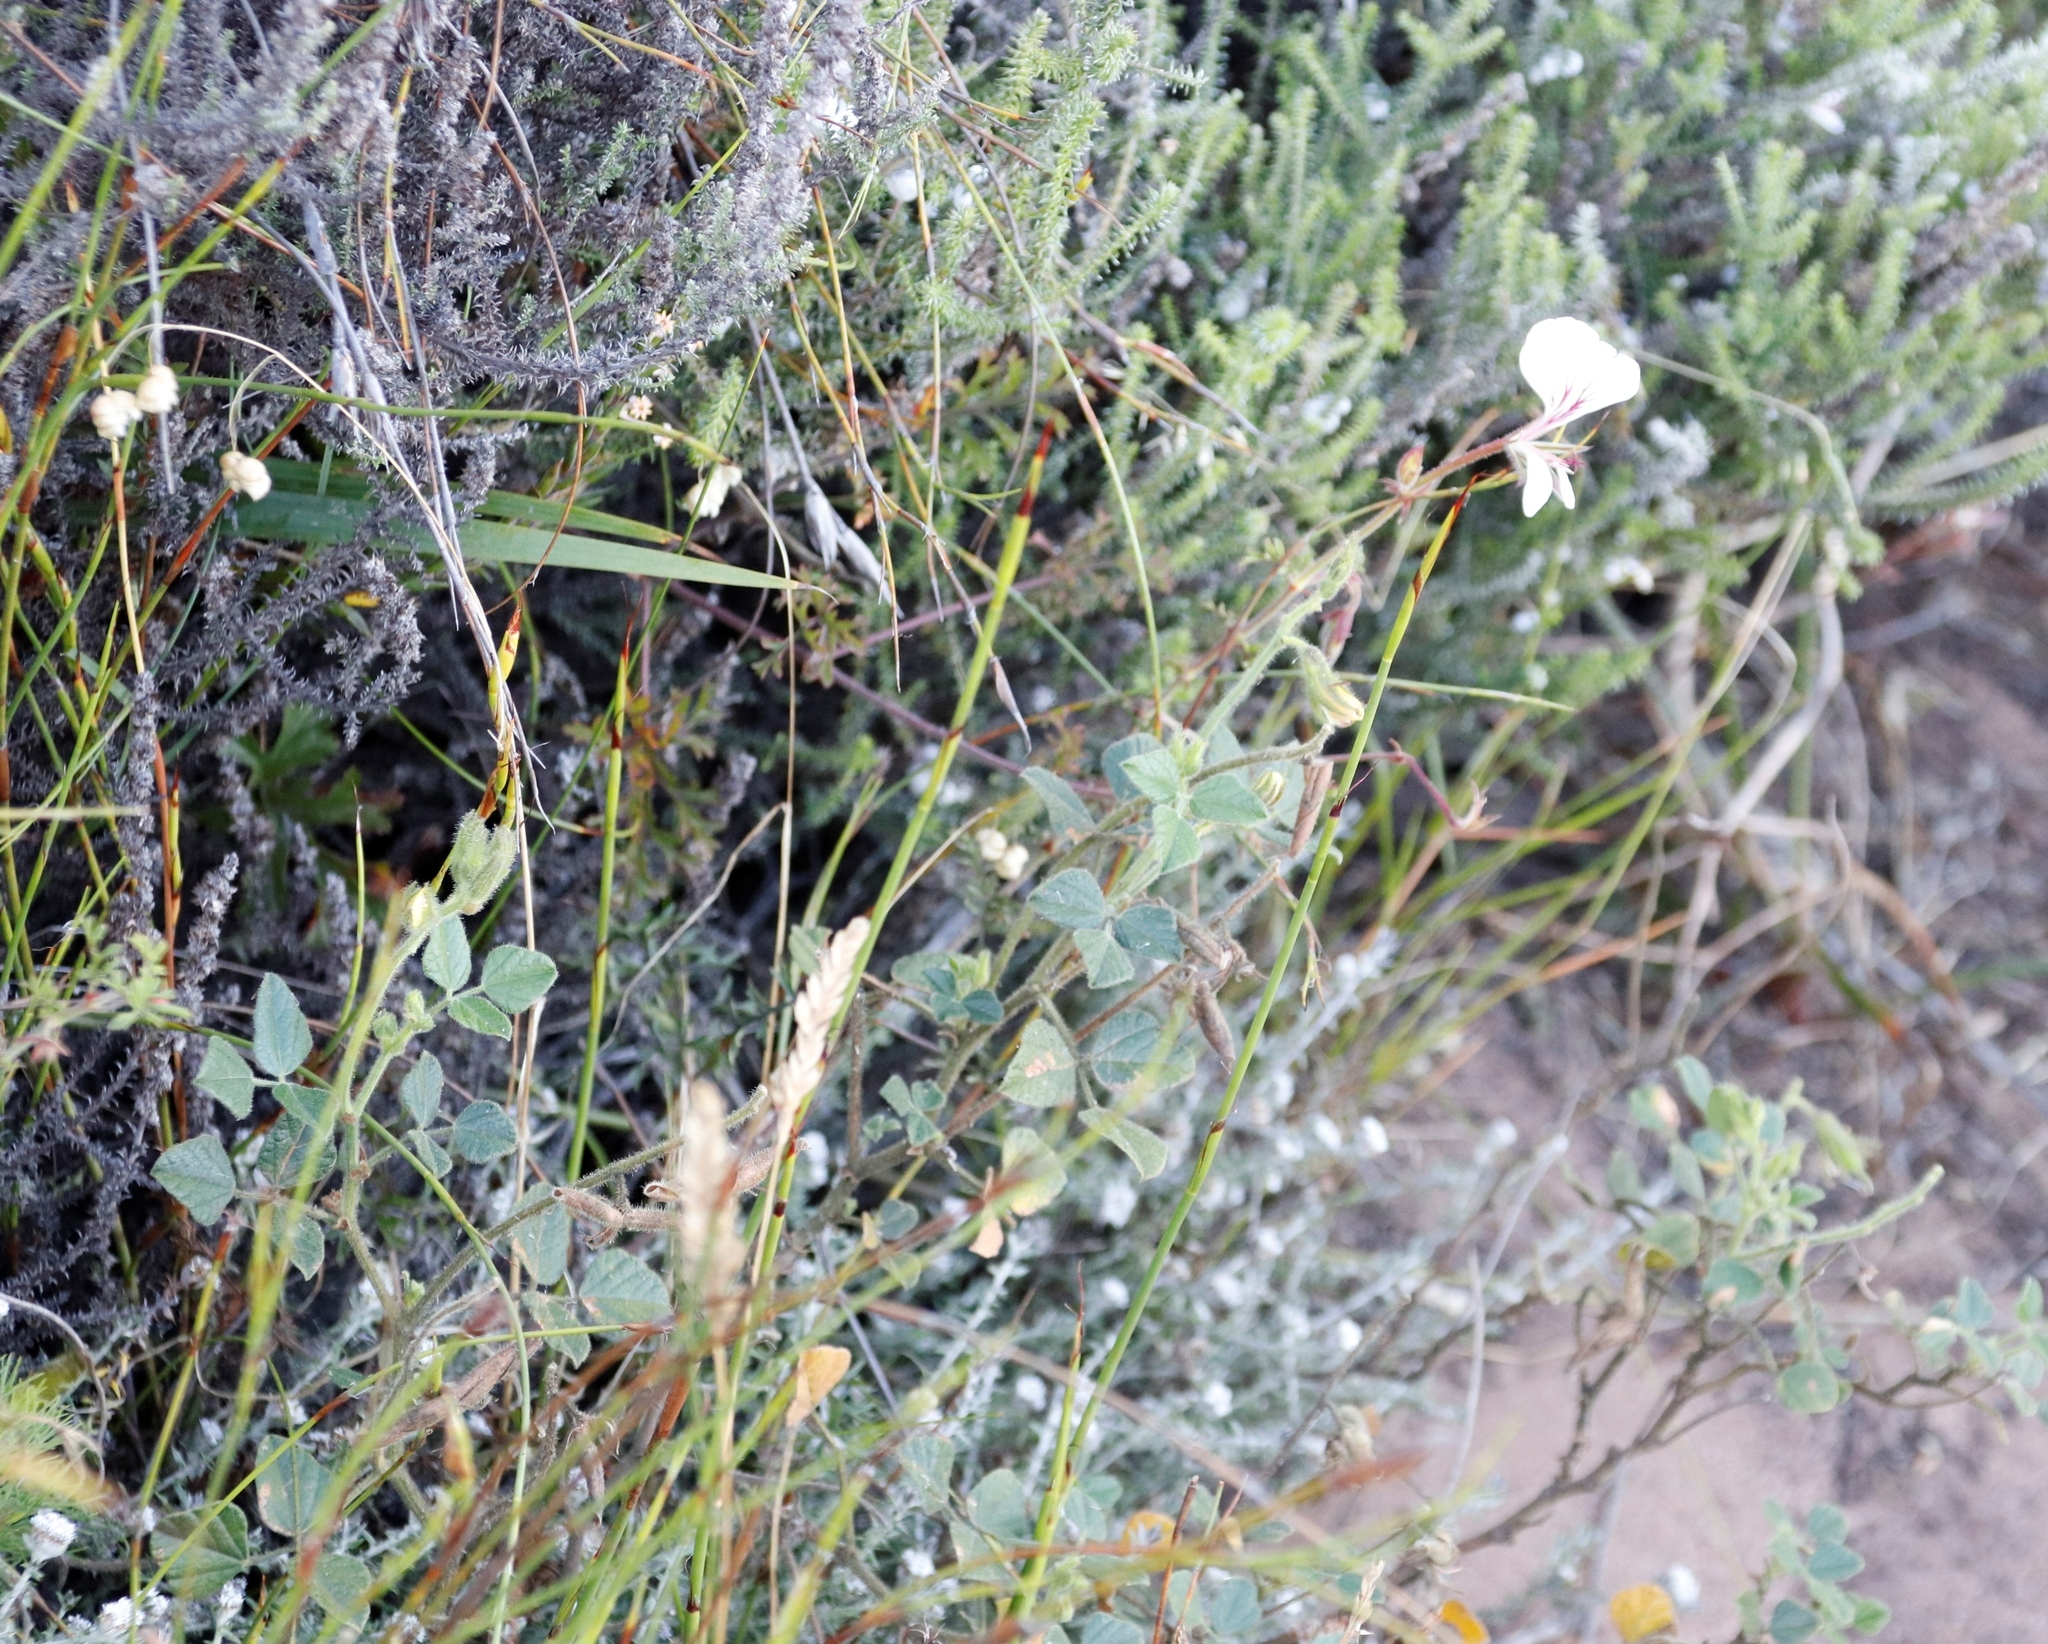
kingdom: Plantae
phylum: Tracheophyta
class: Magnoliopsida
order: Geraniales
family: Geraniaceae
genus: Pelargonium
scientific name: Pelargonium longicaule
